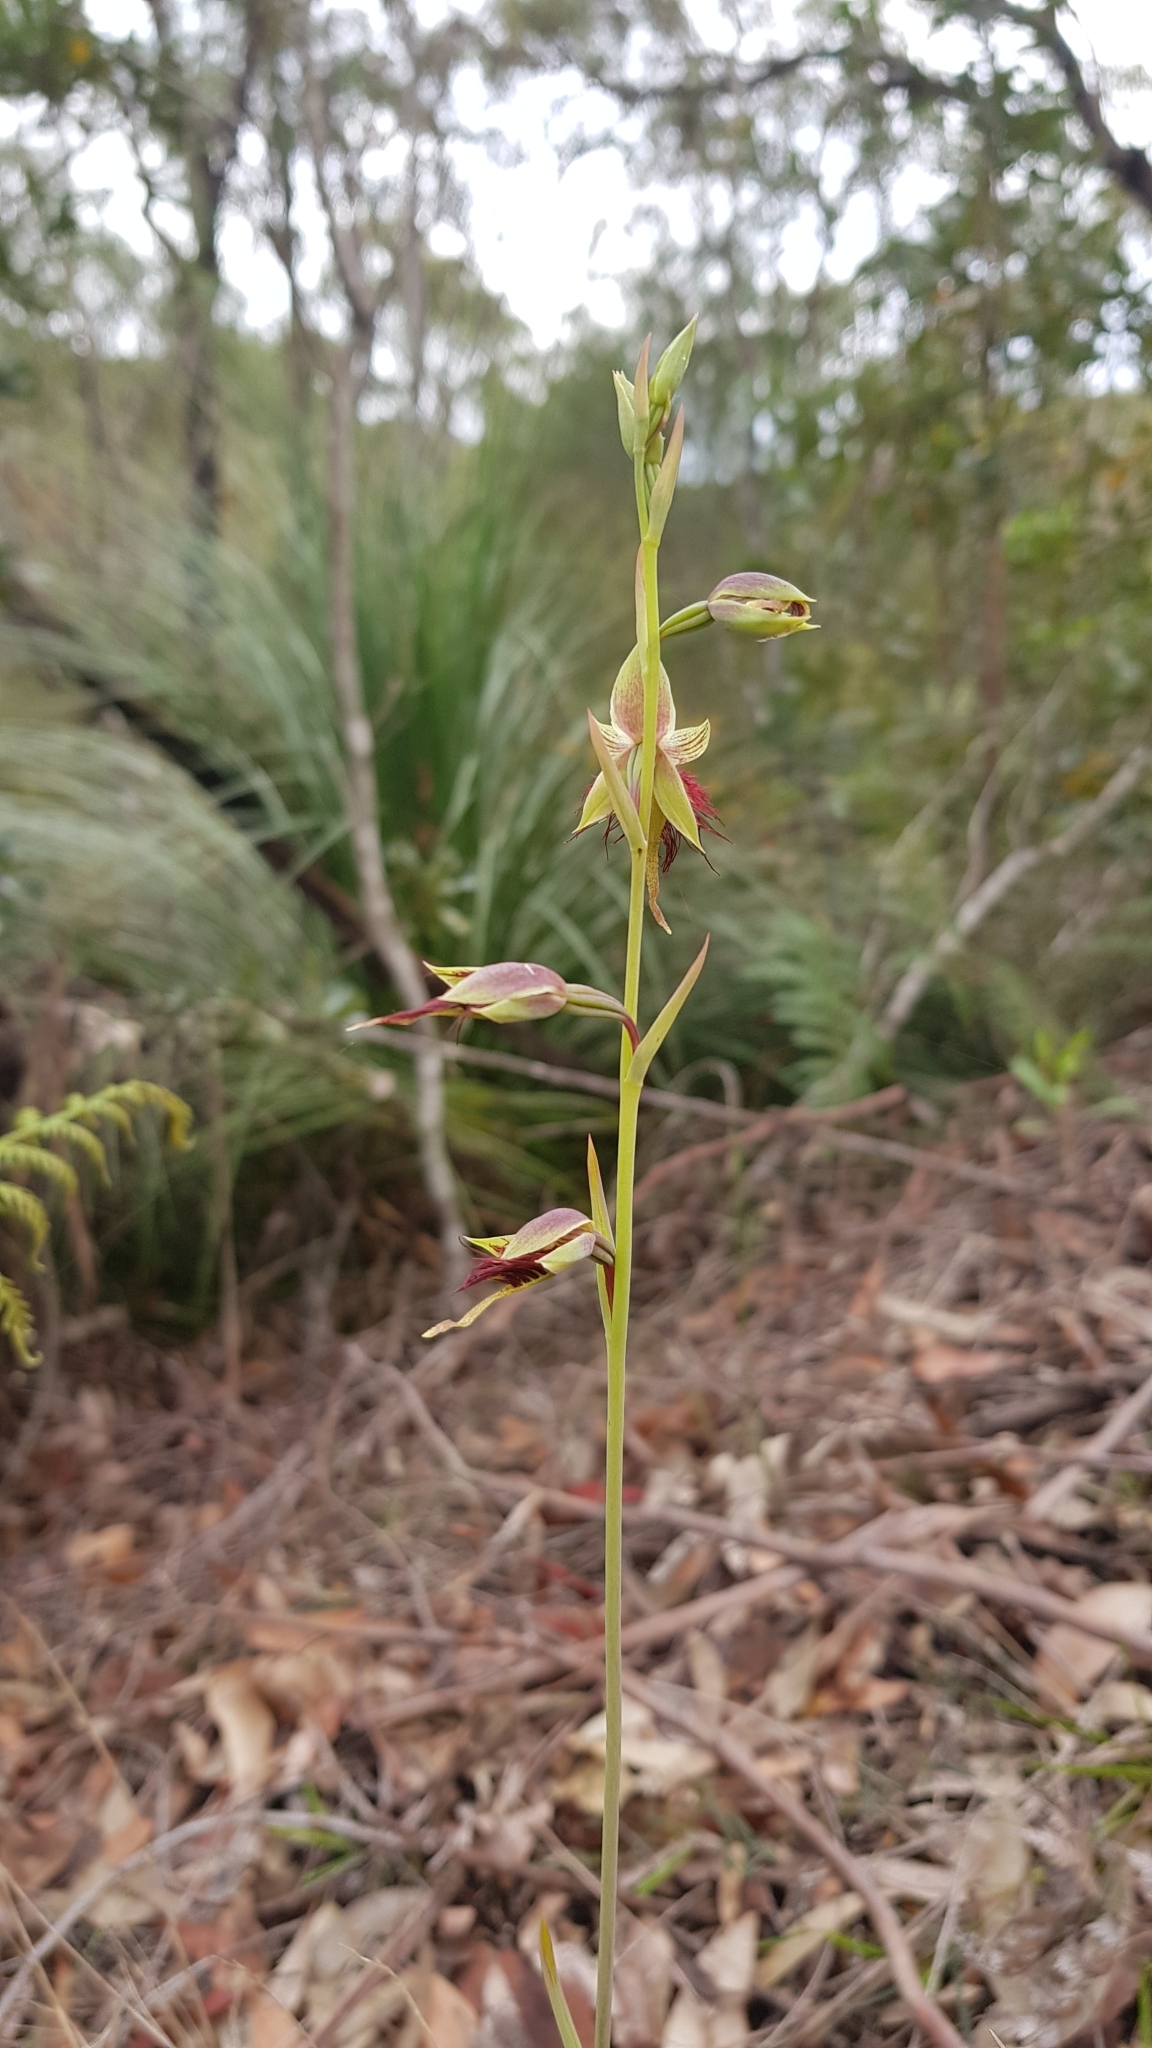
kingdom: Plantae
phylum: Tracheophyta
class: Liliopsida
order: Asparagales
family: Orchidaceae
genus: Calochilus
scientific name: Calochilus paludosus
